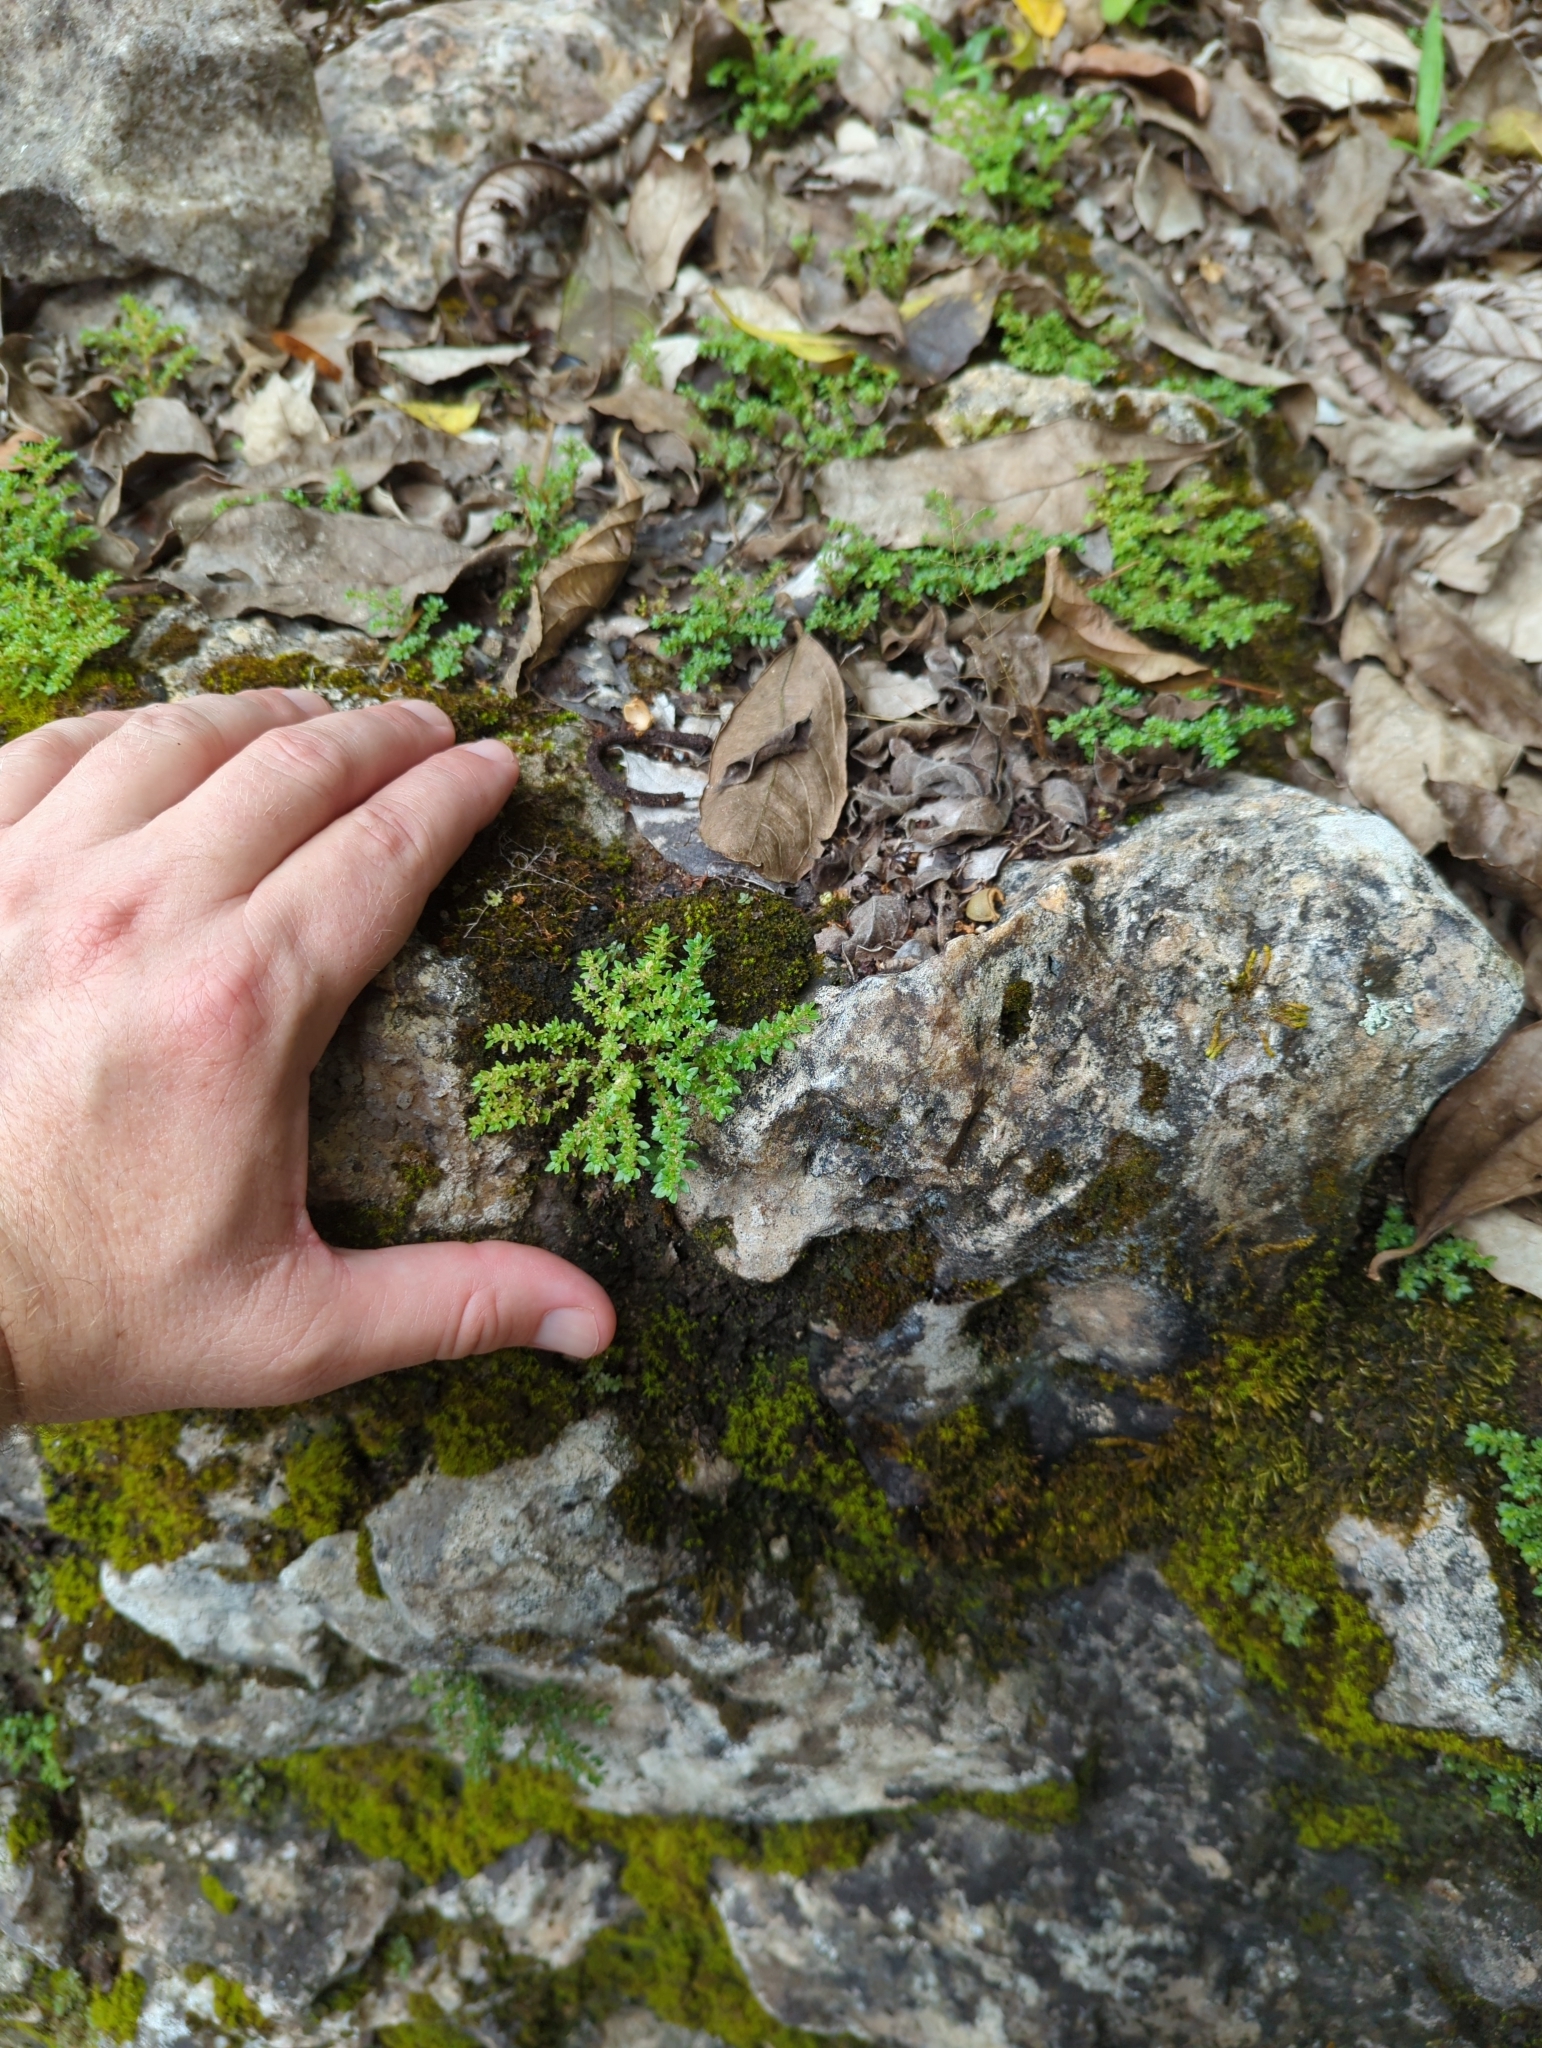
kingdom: Plantae
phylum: Tracheophyta
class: Magnoliopsida
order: Rosales
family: Urticaceae
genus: Pilea
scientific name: Pilea microphylla
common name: Artillery-plant
